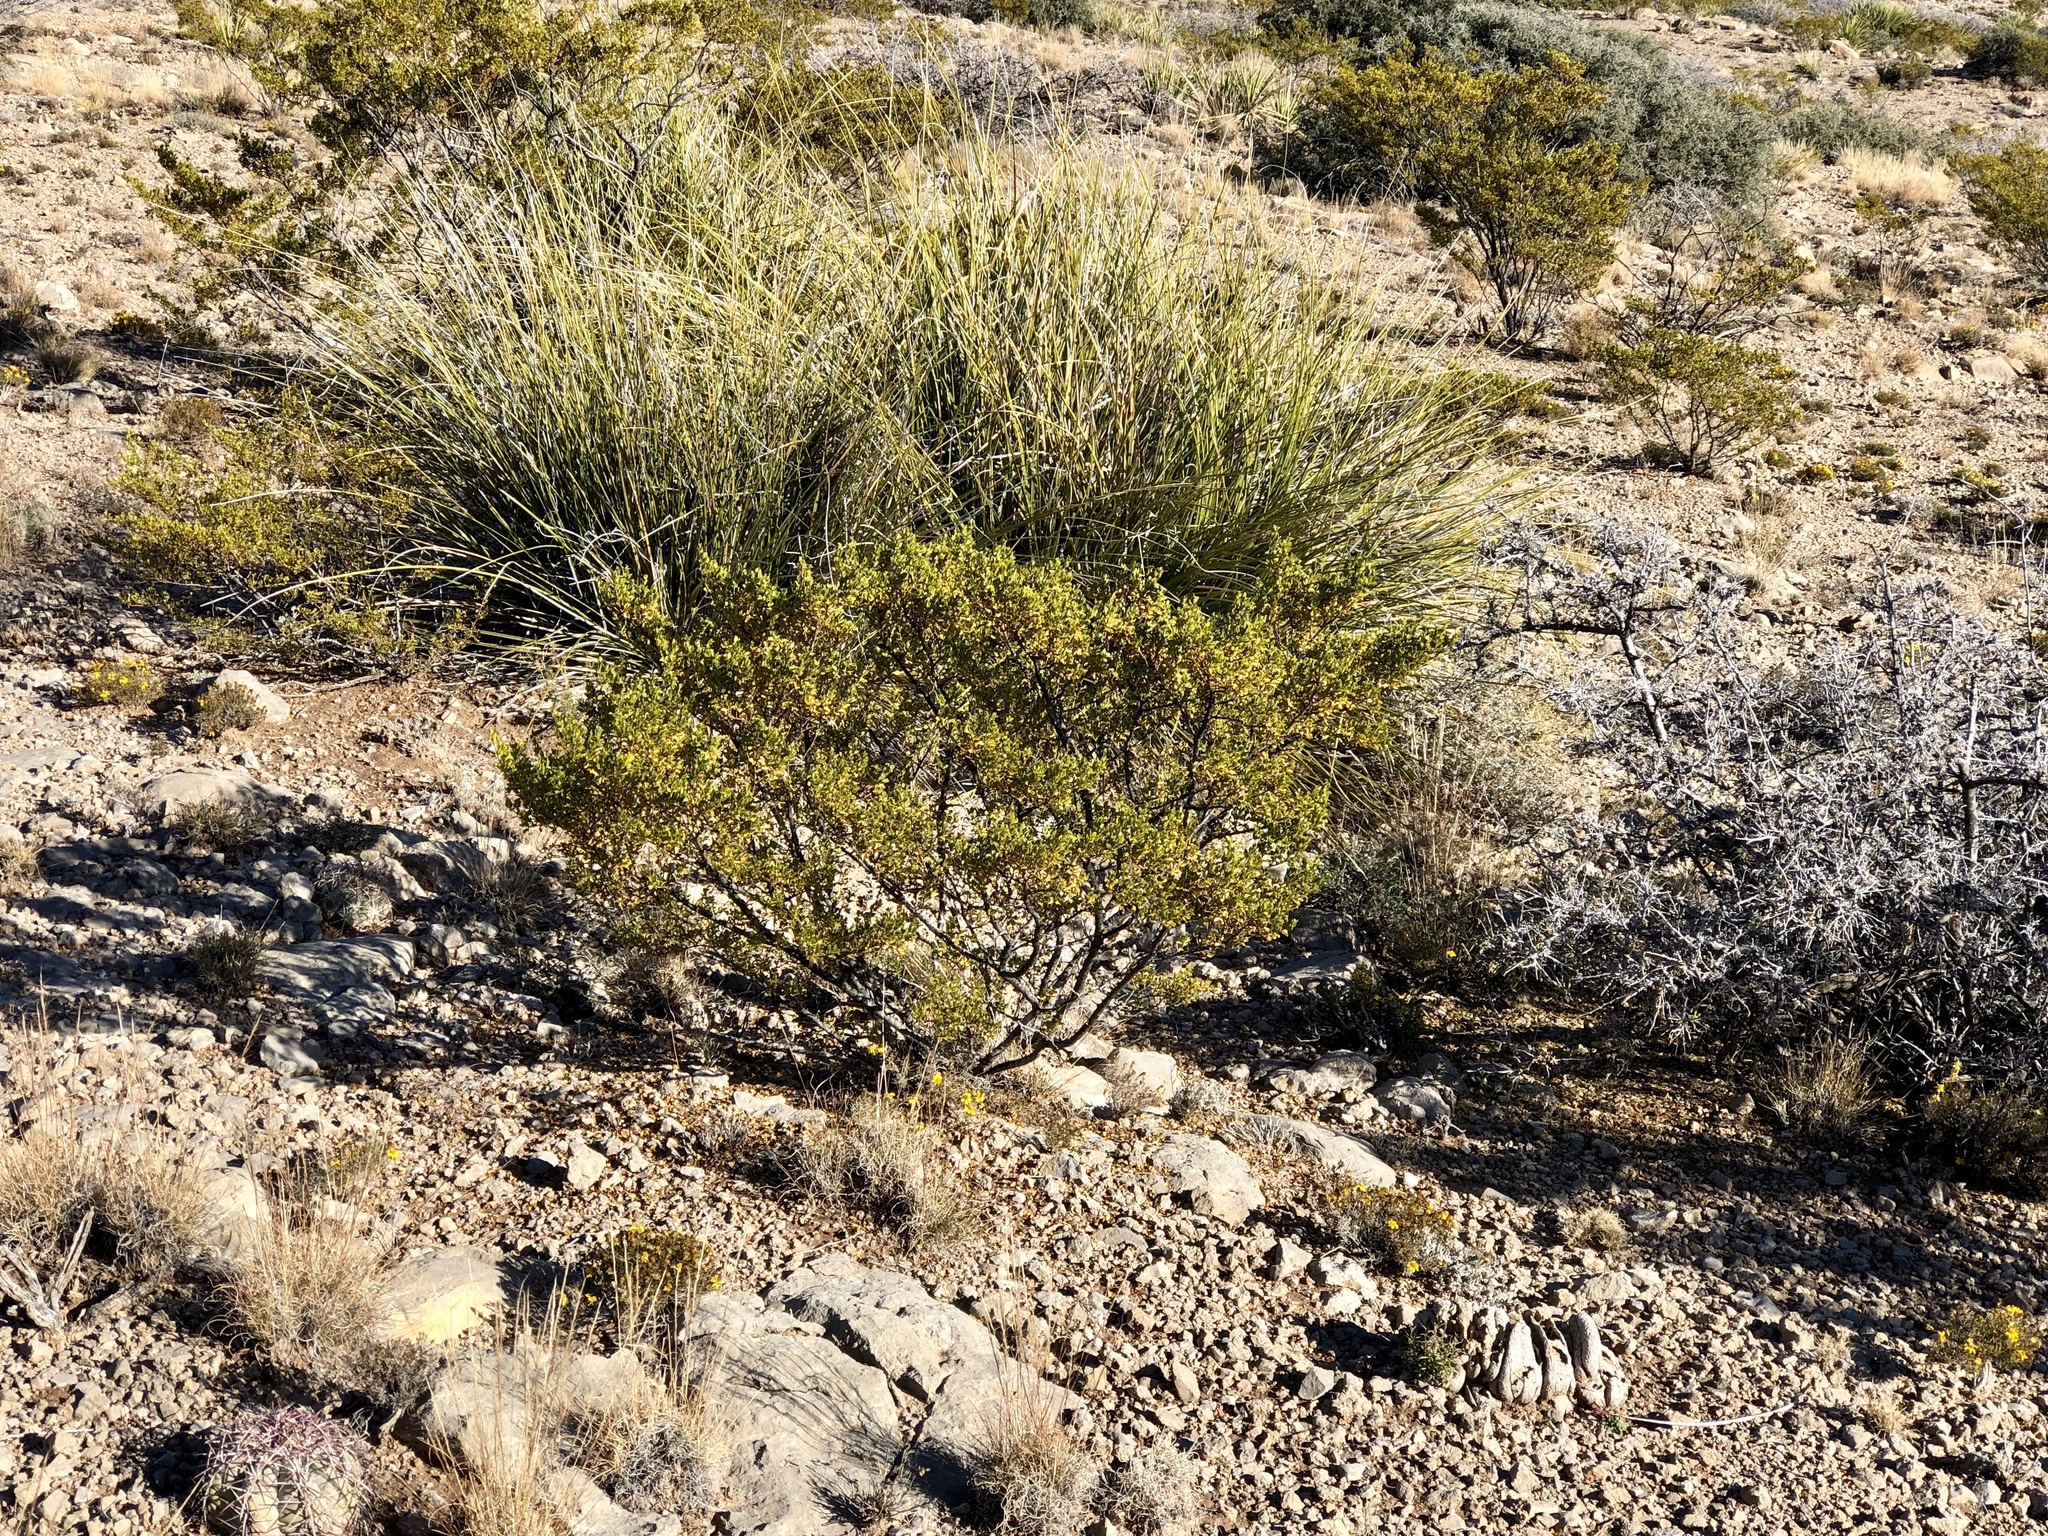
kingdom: Plantae
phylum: Tracheophyta
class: Magnoliopsida
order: Zygophyllales
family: Zygophyllaceae
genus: Larrea
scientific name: Larrea tridentata
